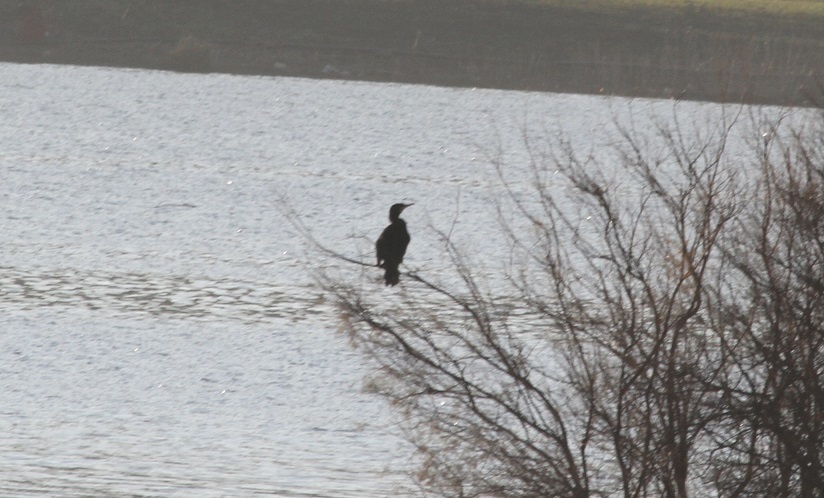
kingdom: Animalia
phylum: Chordata
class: Aves
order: Suliformes
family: Phalacrocoracidae
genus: Phalacrocorax
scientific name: Phalacrocorax carbo
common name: Great cormorant
